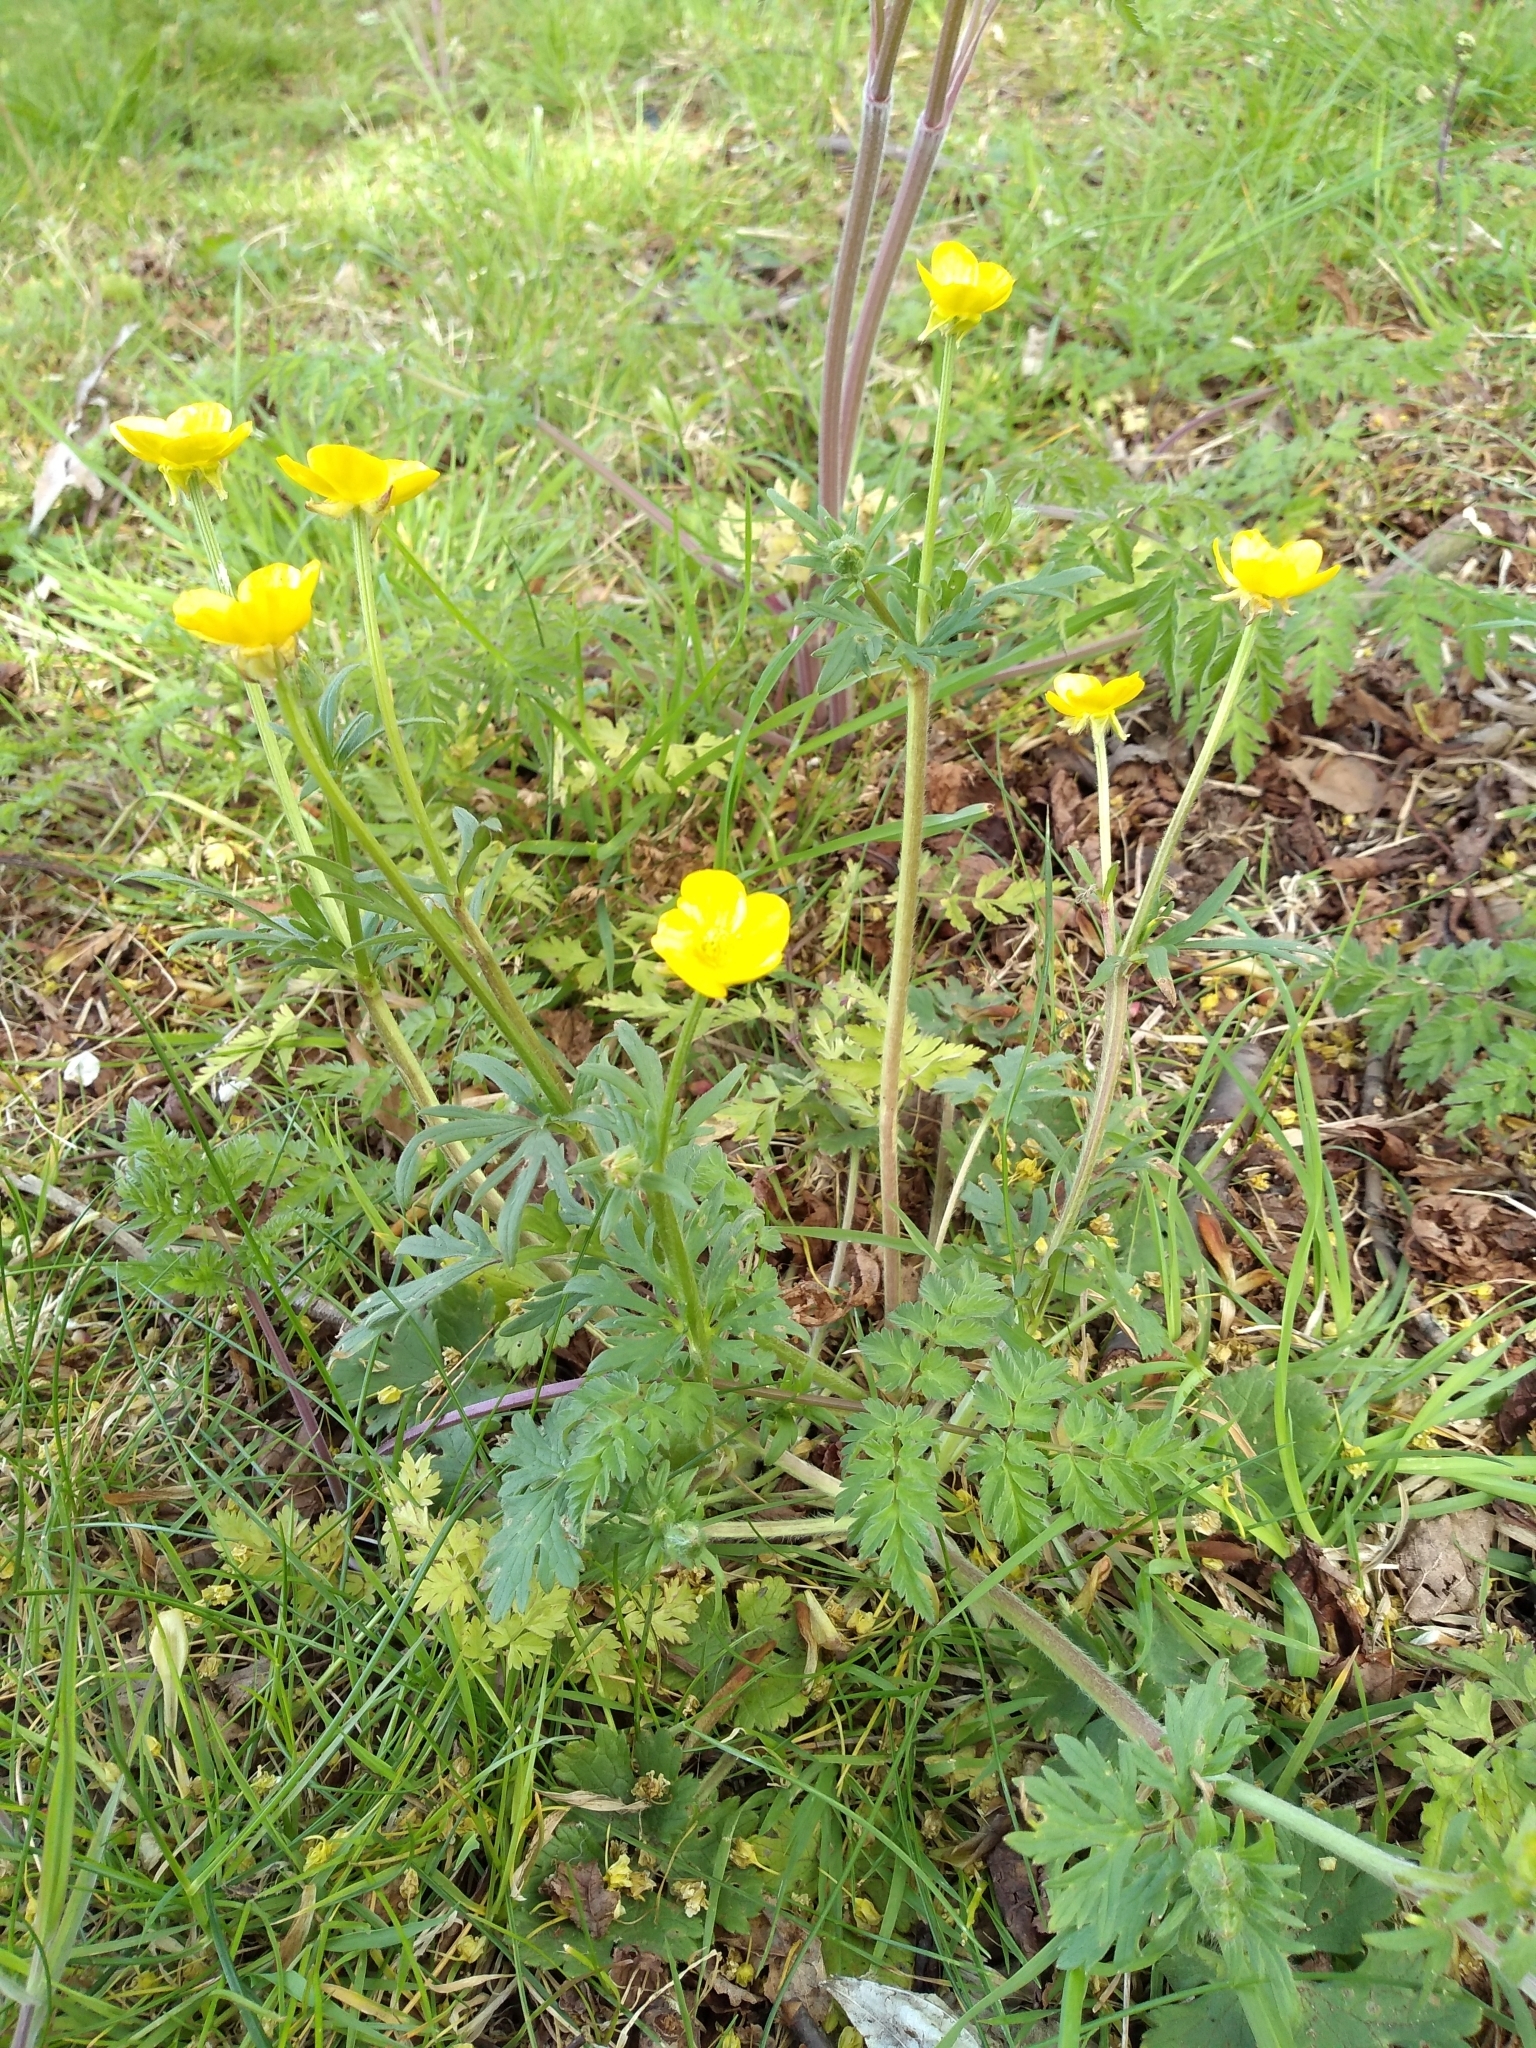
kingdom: Plantae
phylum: Tracheophyta
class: Magnoliopsida
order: Ranunculales
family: Ranunculaceae
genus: Ranunculus
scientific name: Ranunculus bulbosus
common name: Bulbous buttercup
